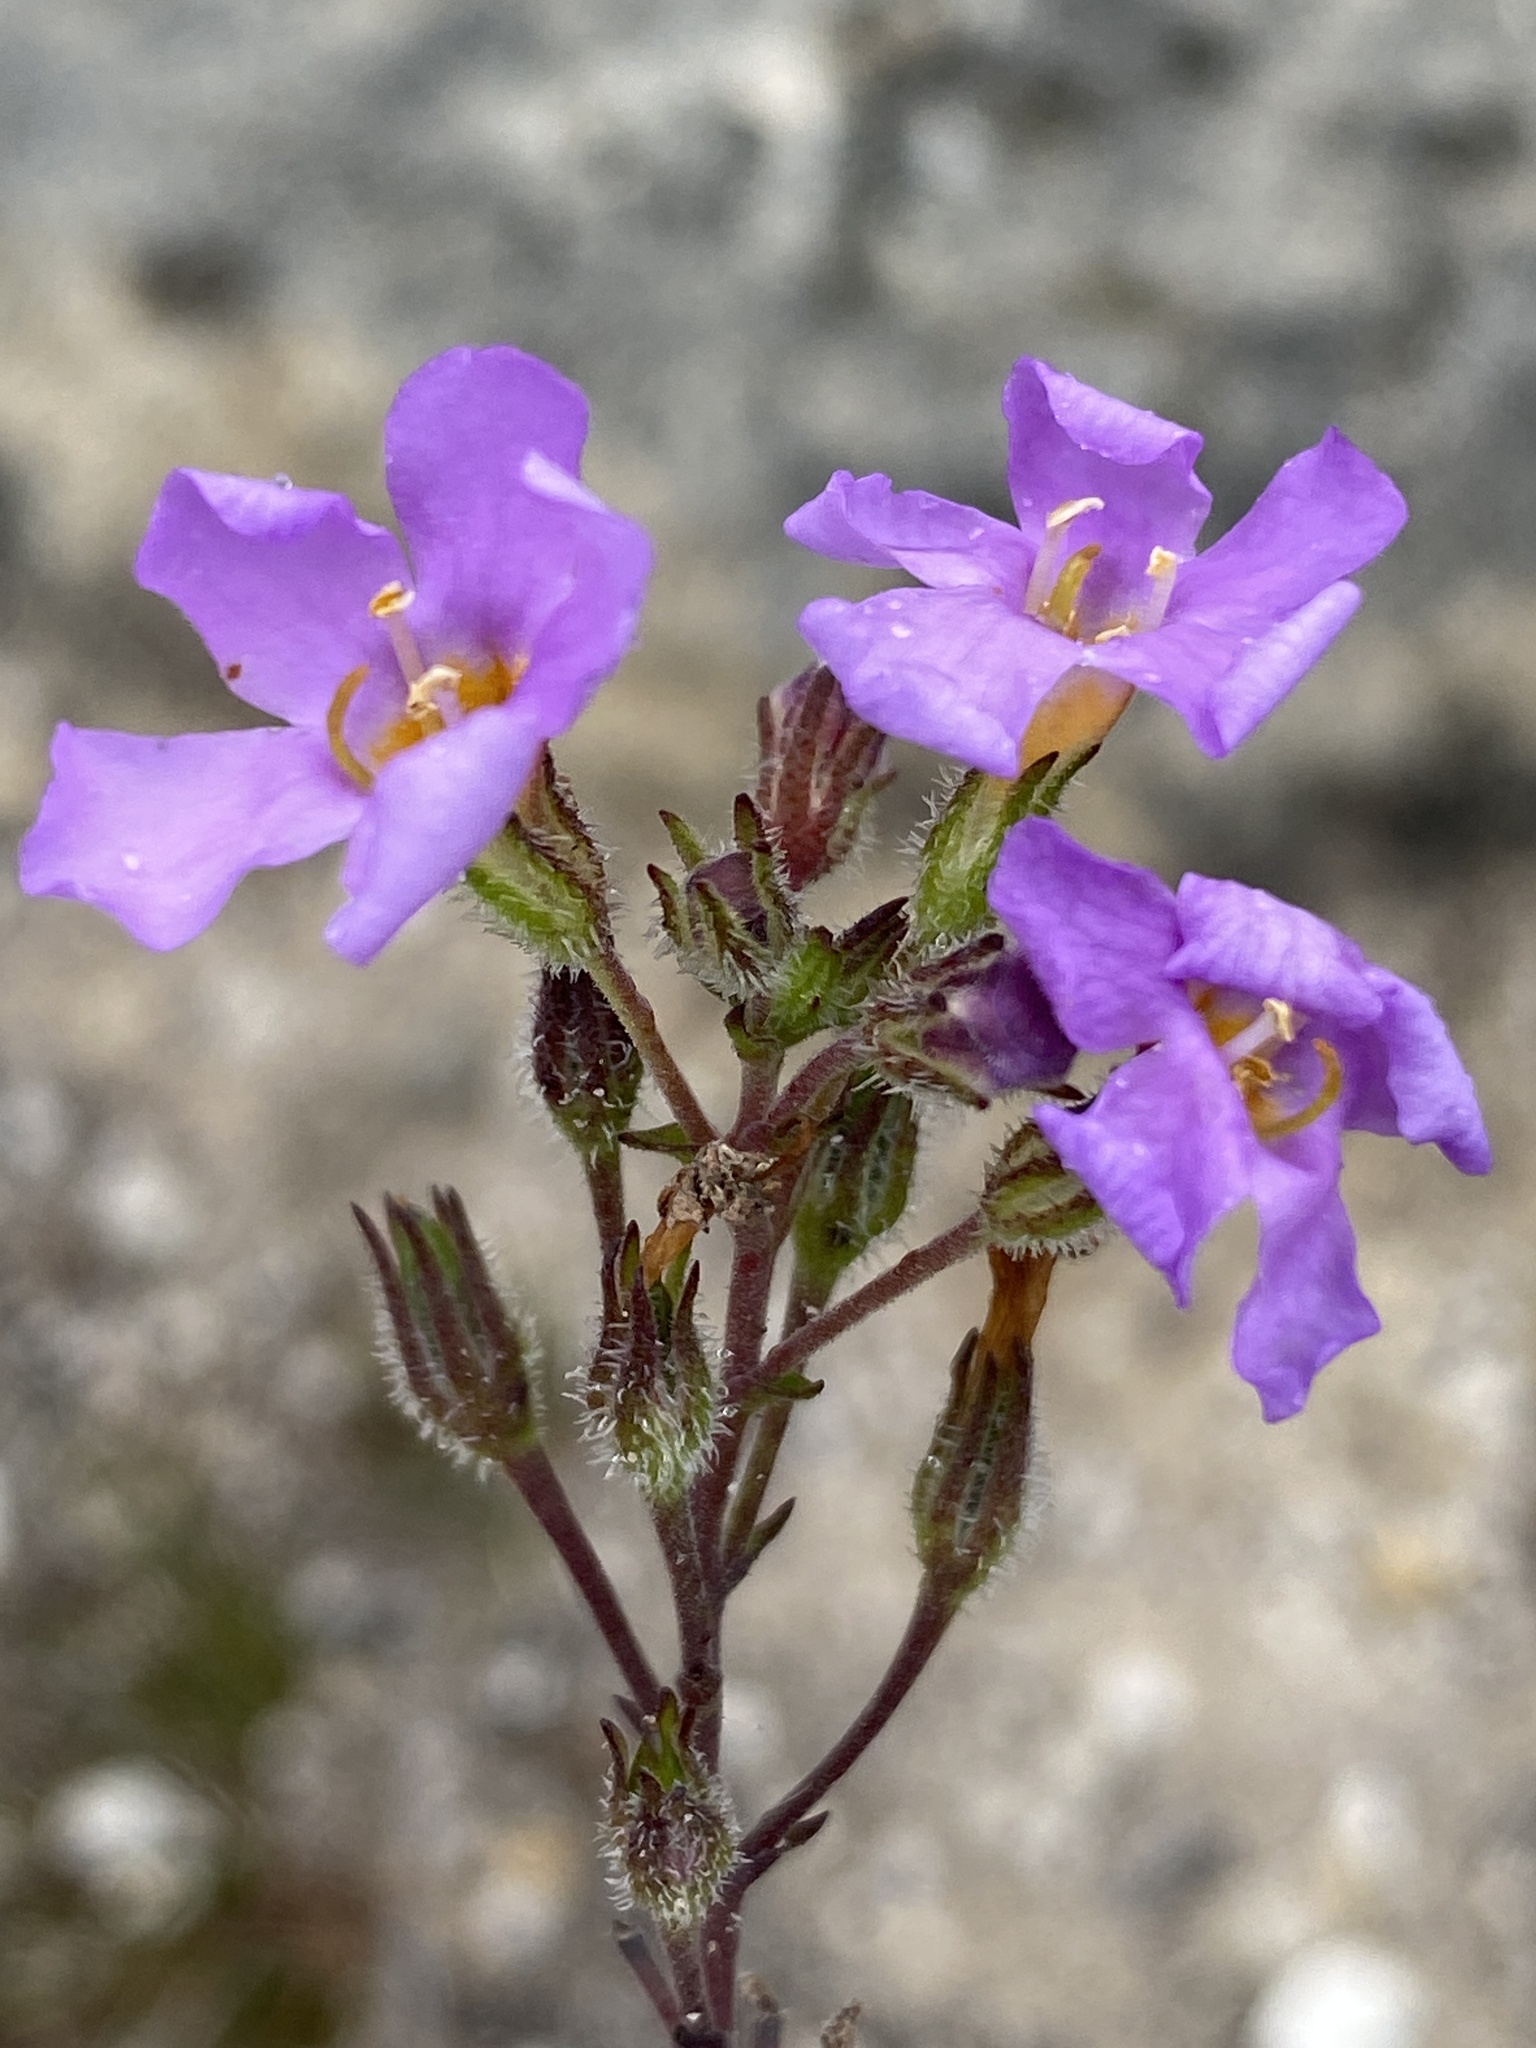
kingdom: Plantae
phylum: Tracheophyta
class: Magnoliopsida
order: Lamiales
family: Scrophulariaceae
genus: Chaenostoma
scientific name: Chaenostoma placidum
